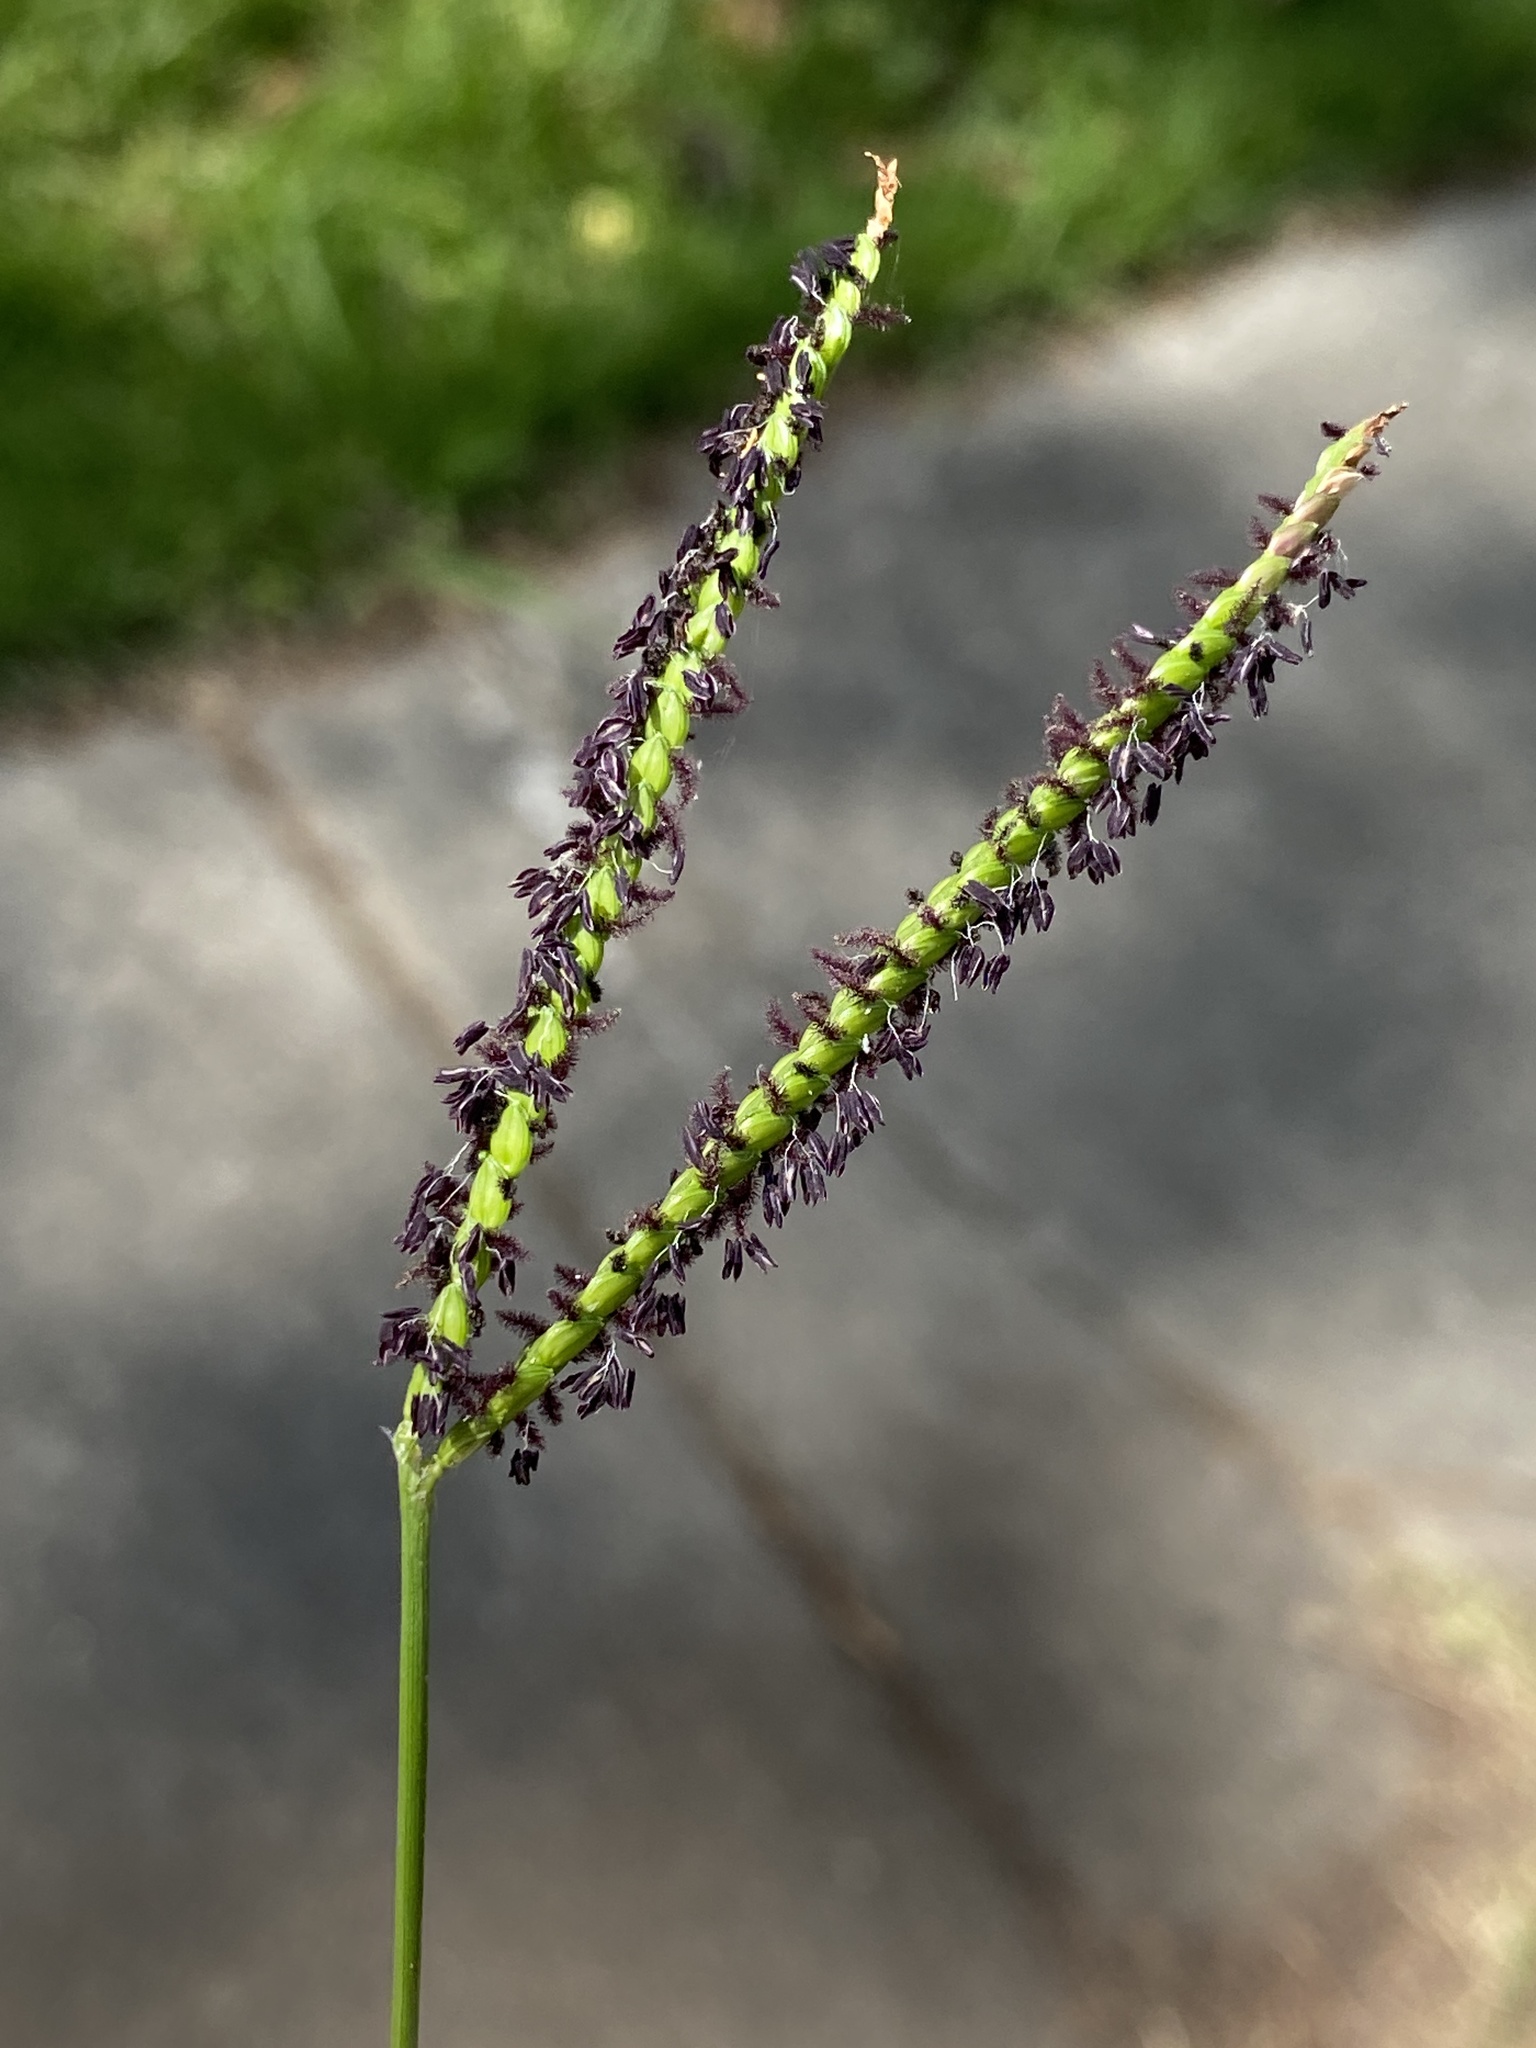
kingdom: Plantae
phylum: Tracheophyta
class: Liliopsida
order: Poales
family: Poaceae
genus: Paspalum
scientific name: Paspalum notatum
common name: Bahiagrass
